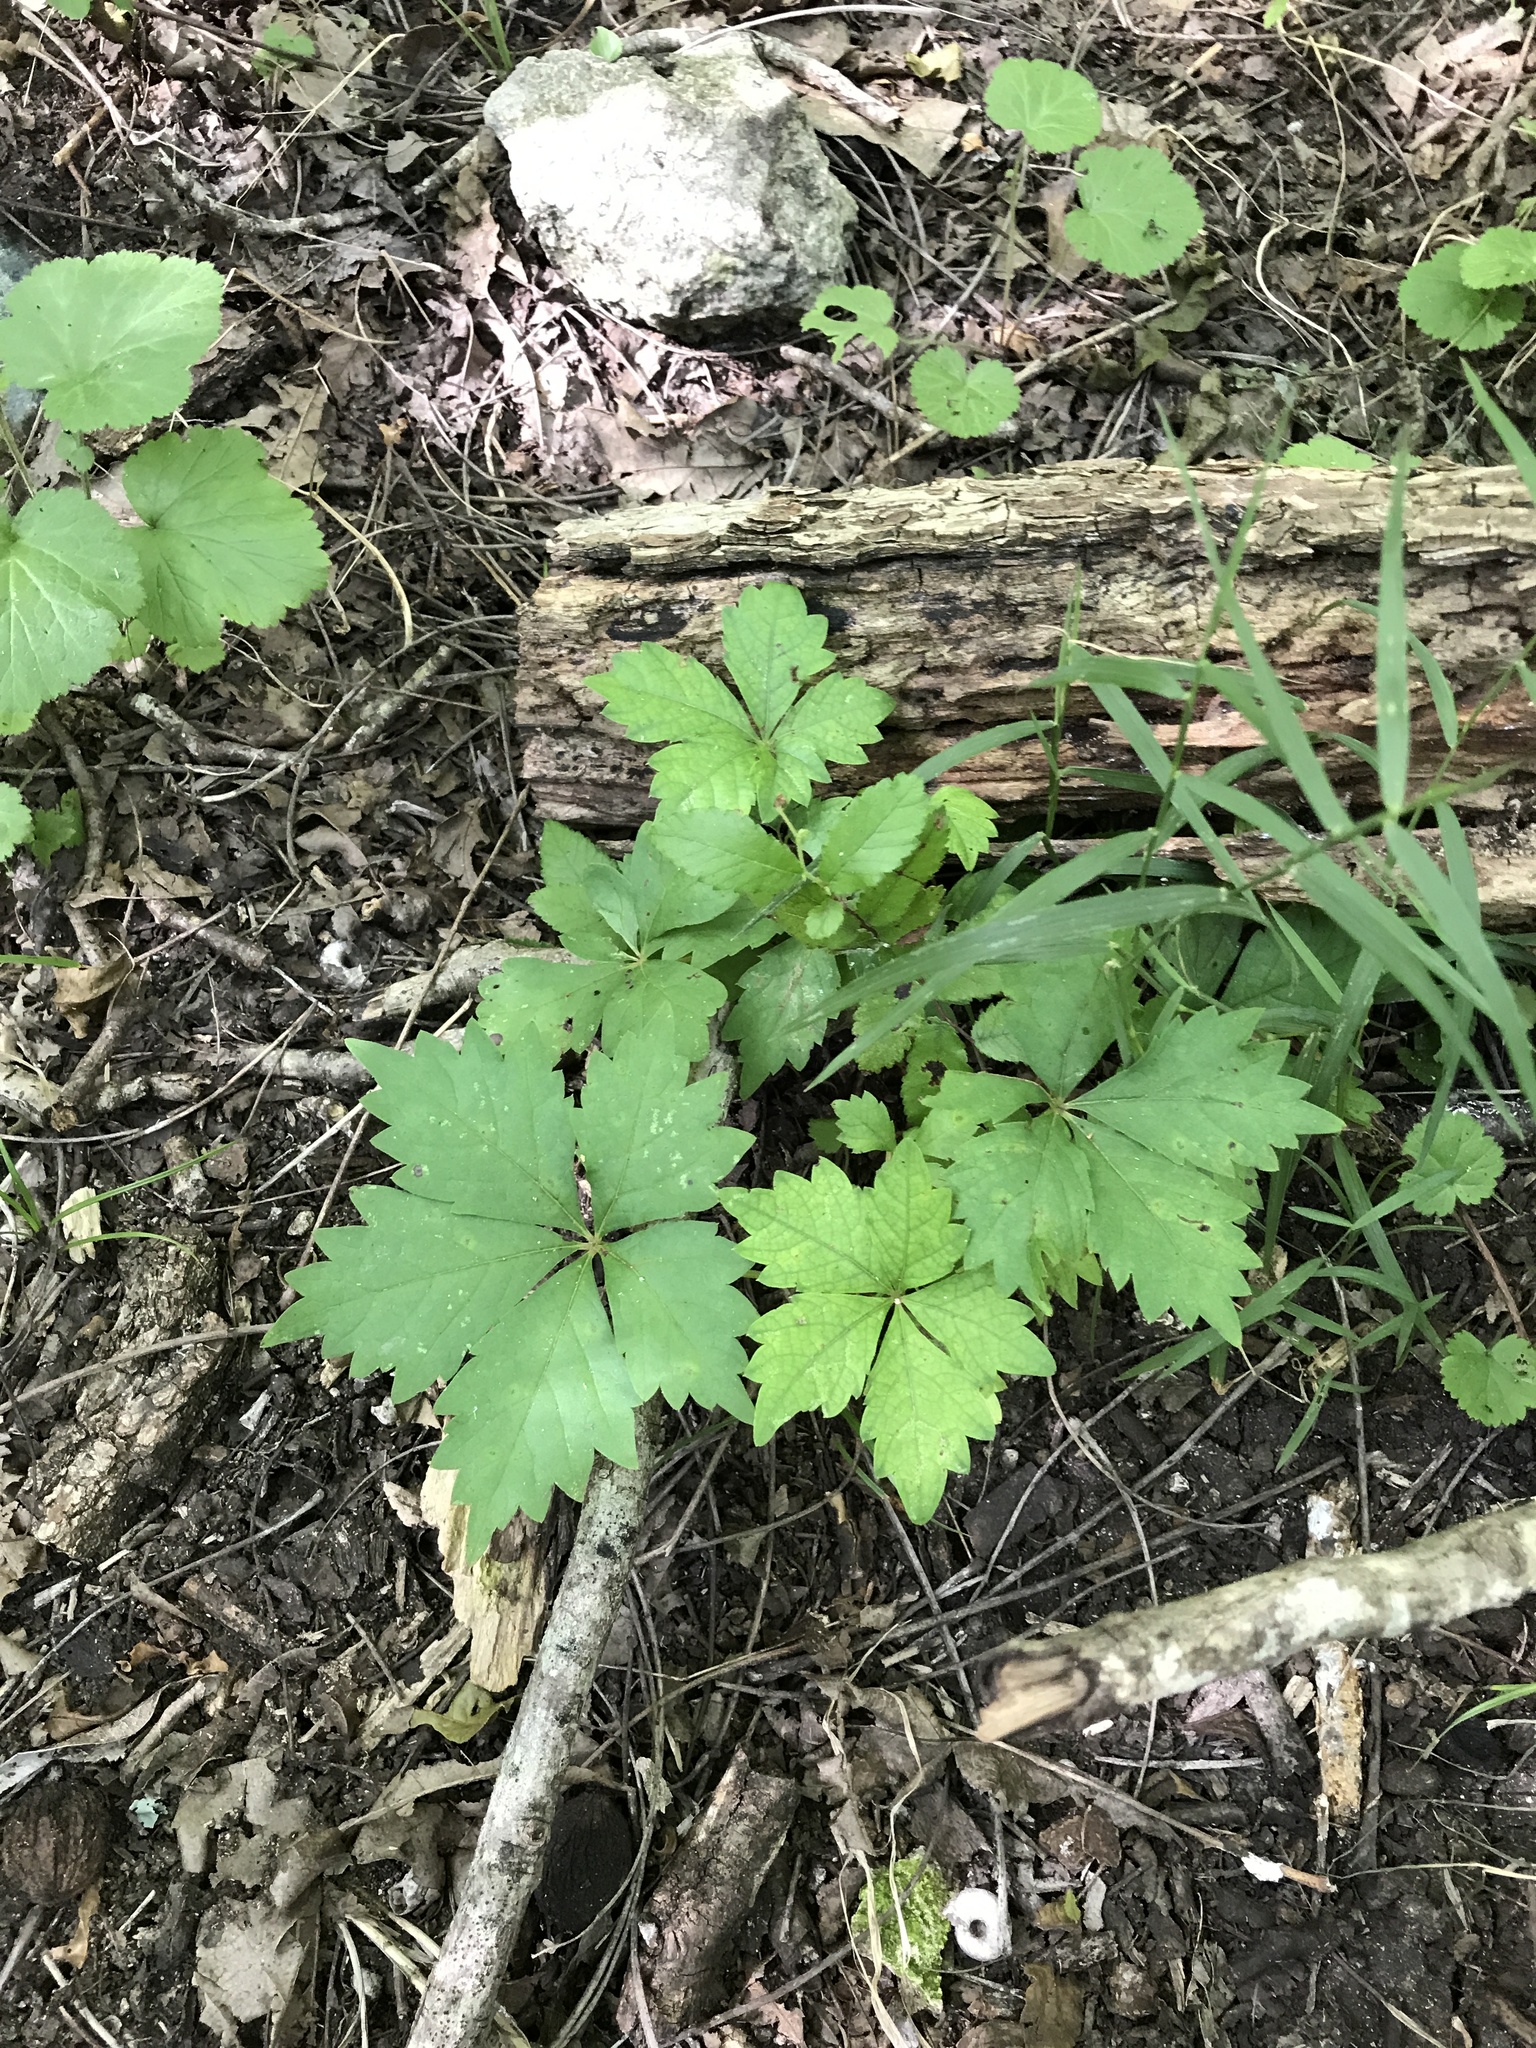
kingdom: Plantae
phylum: Tracheophyta
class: Magnoliopsida
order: Vitales
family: Vitaceae
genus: Parthenocissus
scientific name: Parthenocissus quinquefolia
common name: Virginia-creeper
